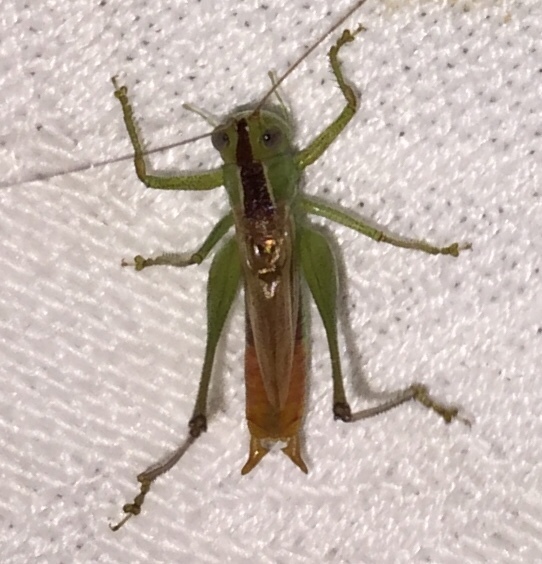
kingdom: Animalia
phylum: Arthropoda
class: Insecta
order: Orthoptera
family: Tettigoniidae
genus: Conocephalus
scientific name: Conocephalus brevipennis
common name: Short-winged meadow katydid
